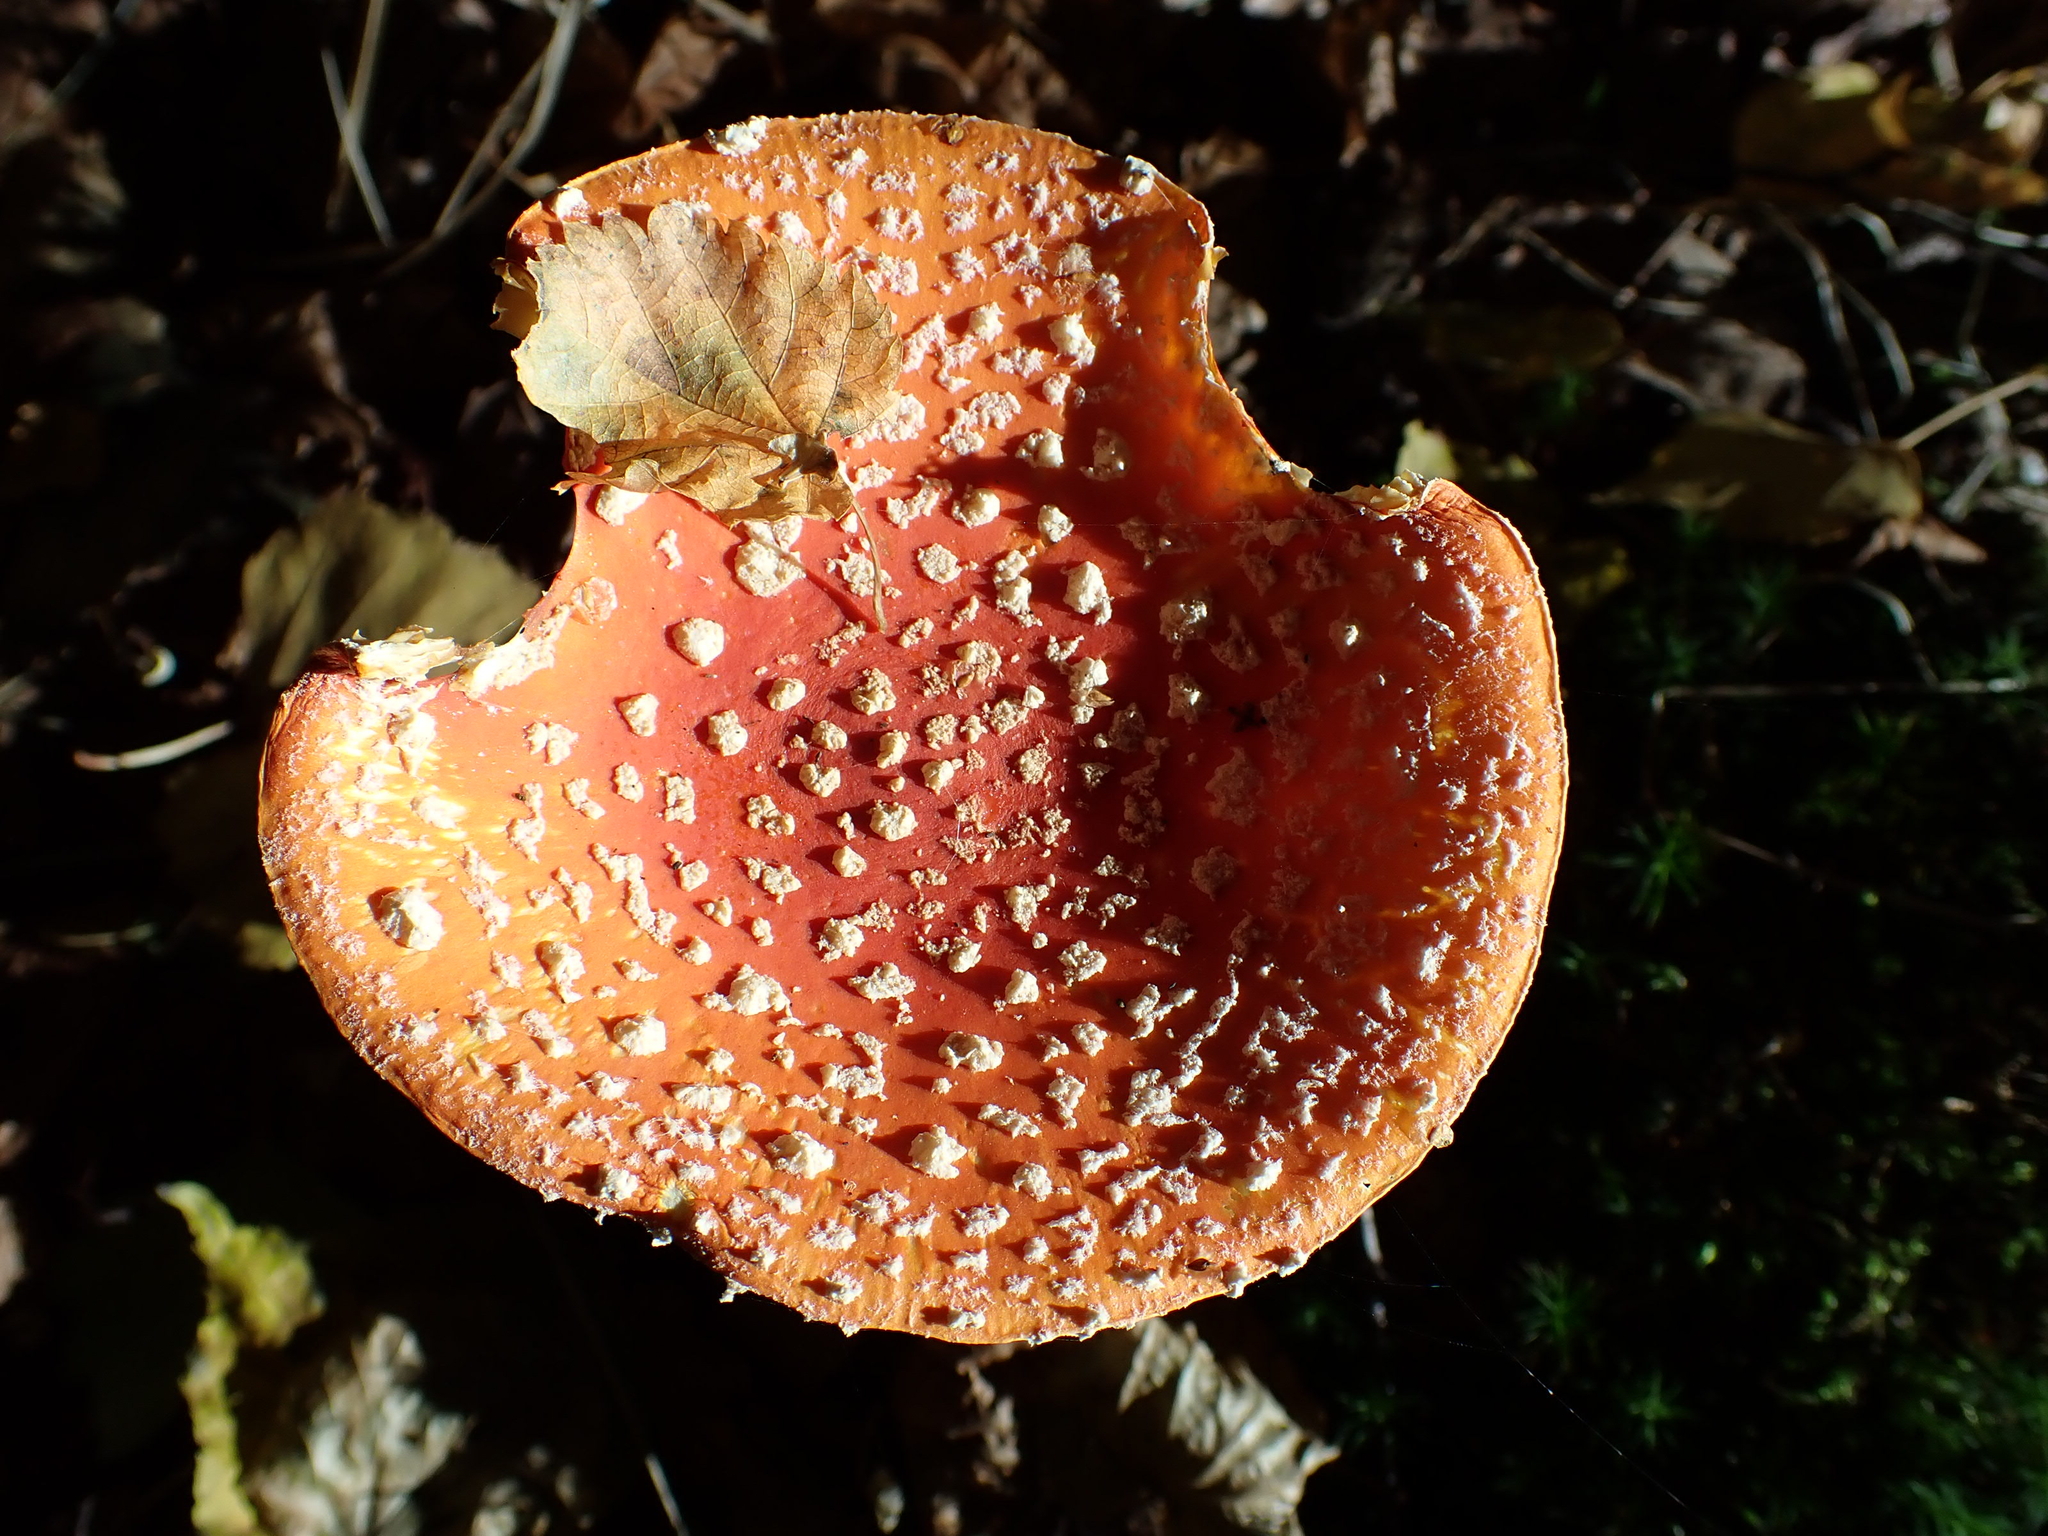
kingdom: Fungi
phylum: Basidiomycota
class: Agaricomycetes
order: Agaricales
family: Amanitaceae
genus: Amanita
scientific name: Amanita muscaria
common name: Fly agaric
